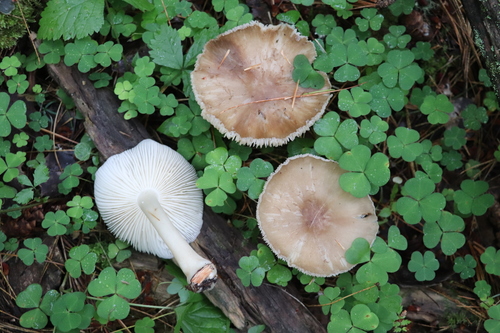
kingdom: Fungi
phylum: Basidiomycota
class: Agaricomycetes
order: Agaricales
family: Tricholomataceae
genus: Megacollybia
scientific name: Megacollybia platyphylla
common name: Whitelaced shank
